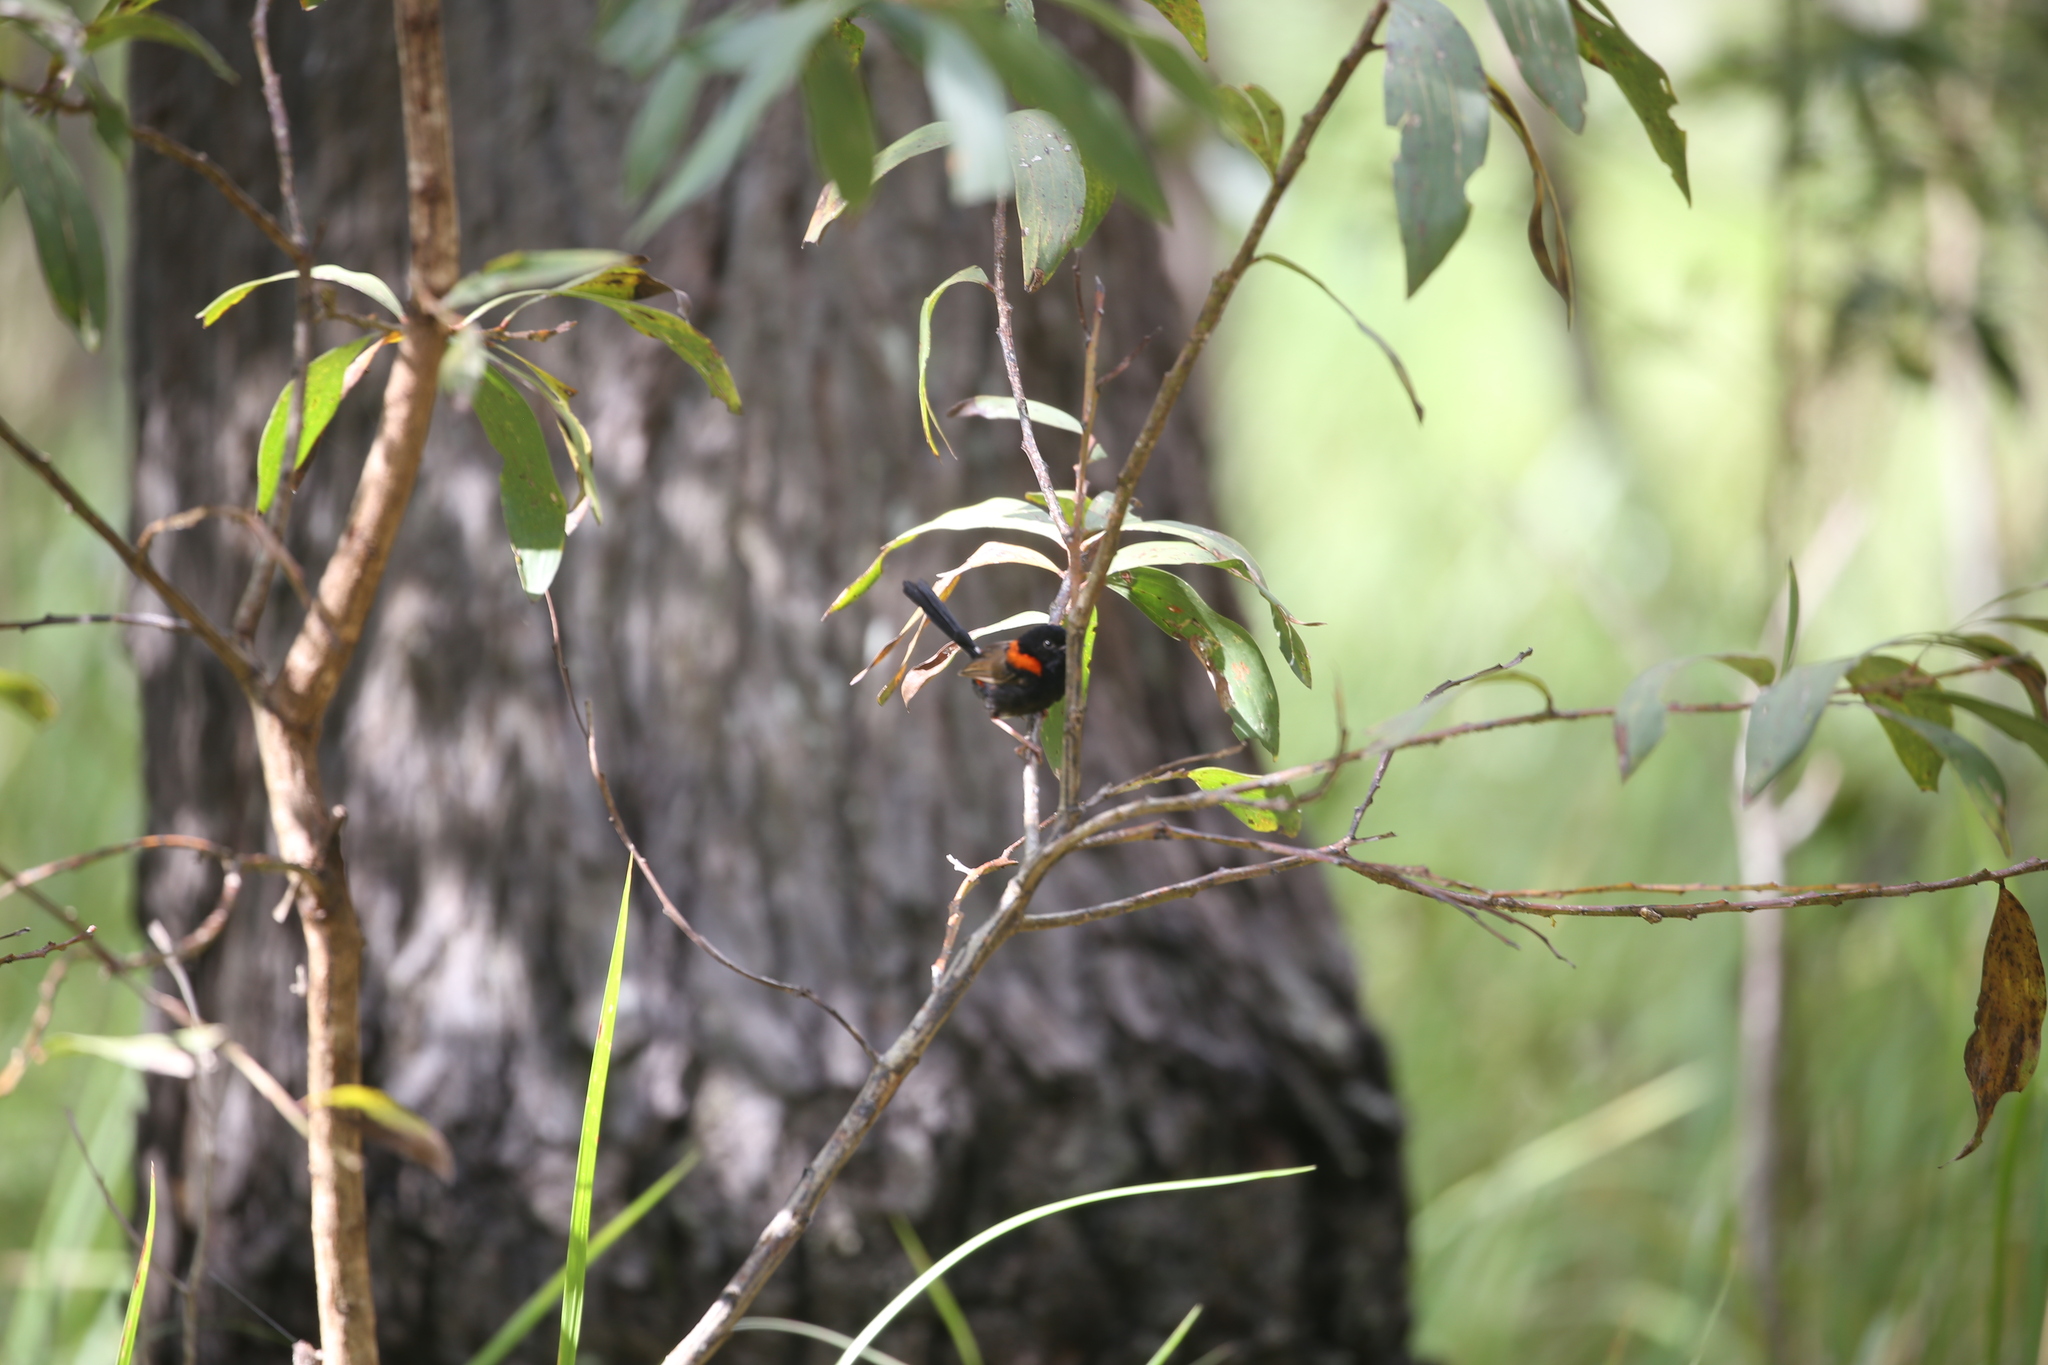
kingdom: Animalia
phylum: Chordata
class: Aves
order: Passeriformes
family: Maluridae
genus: Malurus
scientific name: Malurus melanocephalus
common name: Red-backed fairywren
